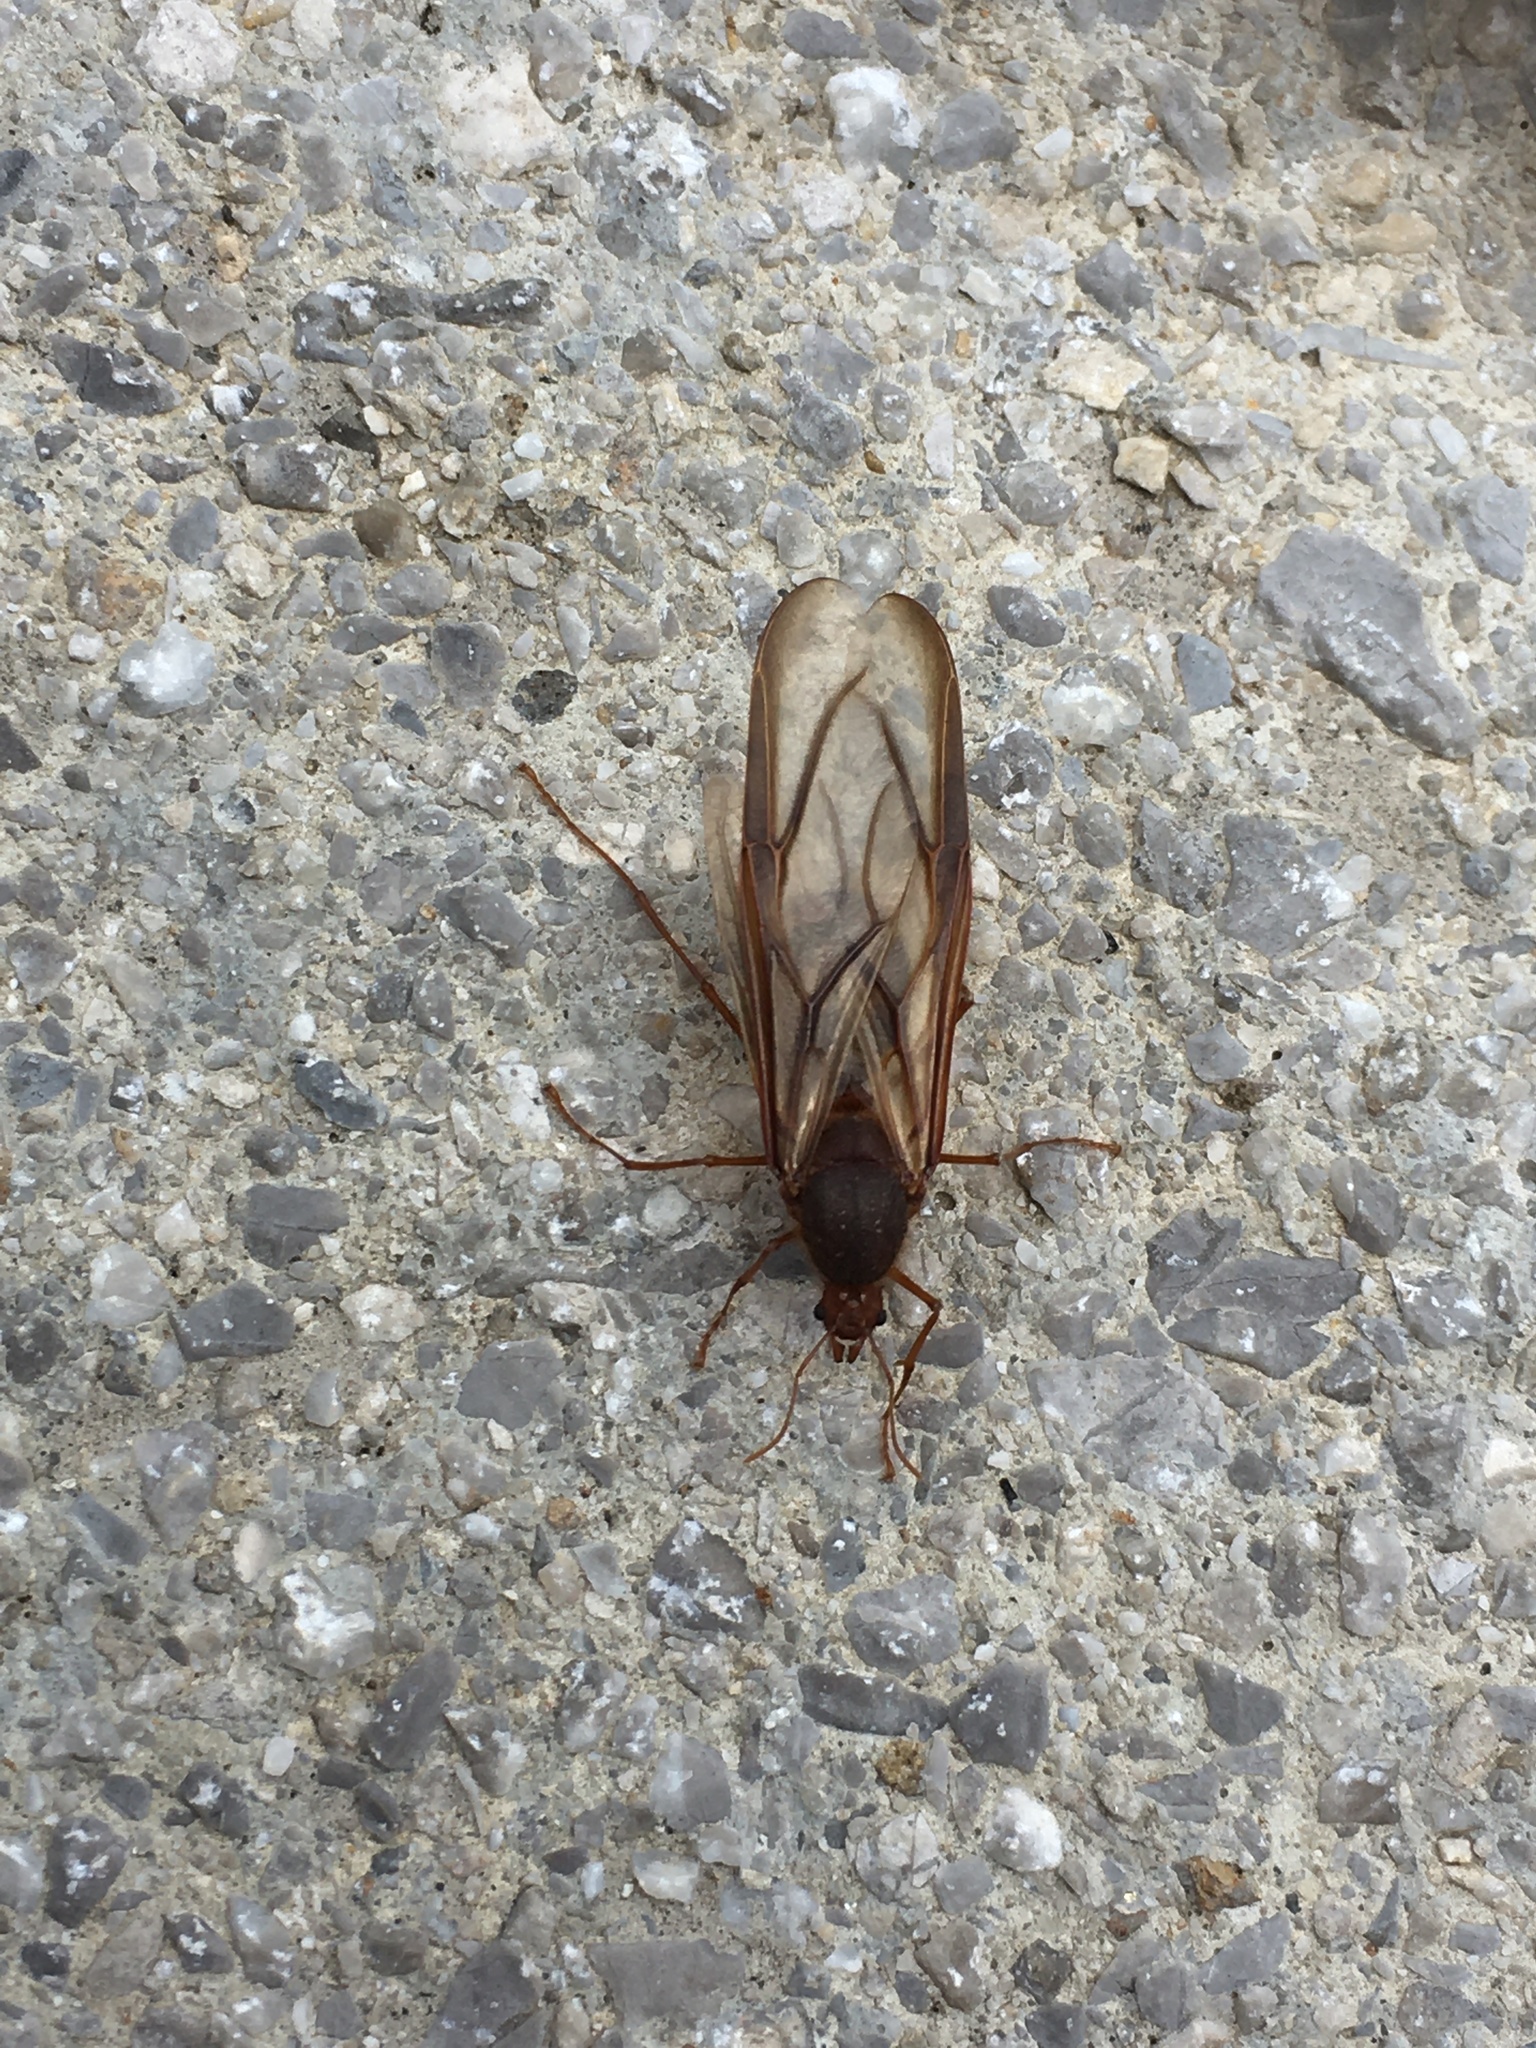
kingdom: Animalia
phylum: Arthropoda
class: Insecta
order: Hymenoptera
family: Formicidae
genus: Atta
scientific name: Atta
